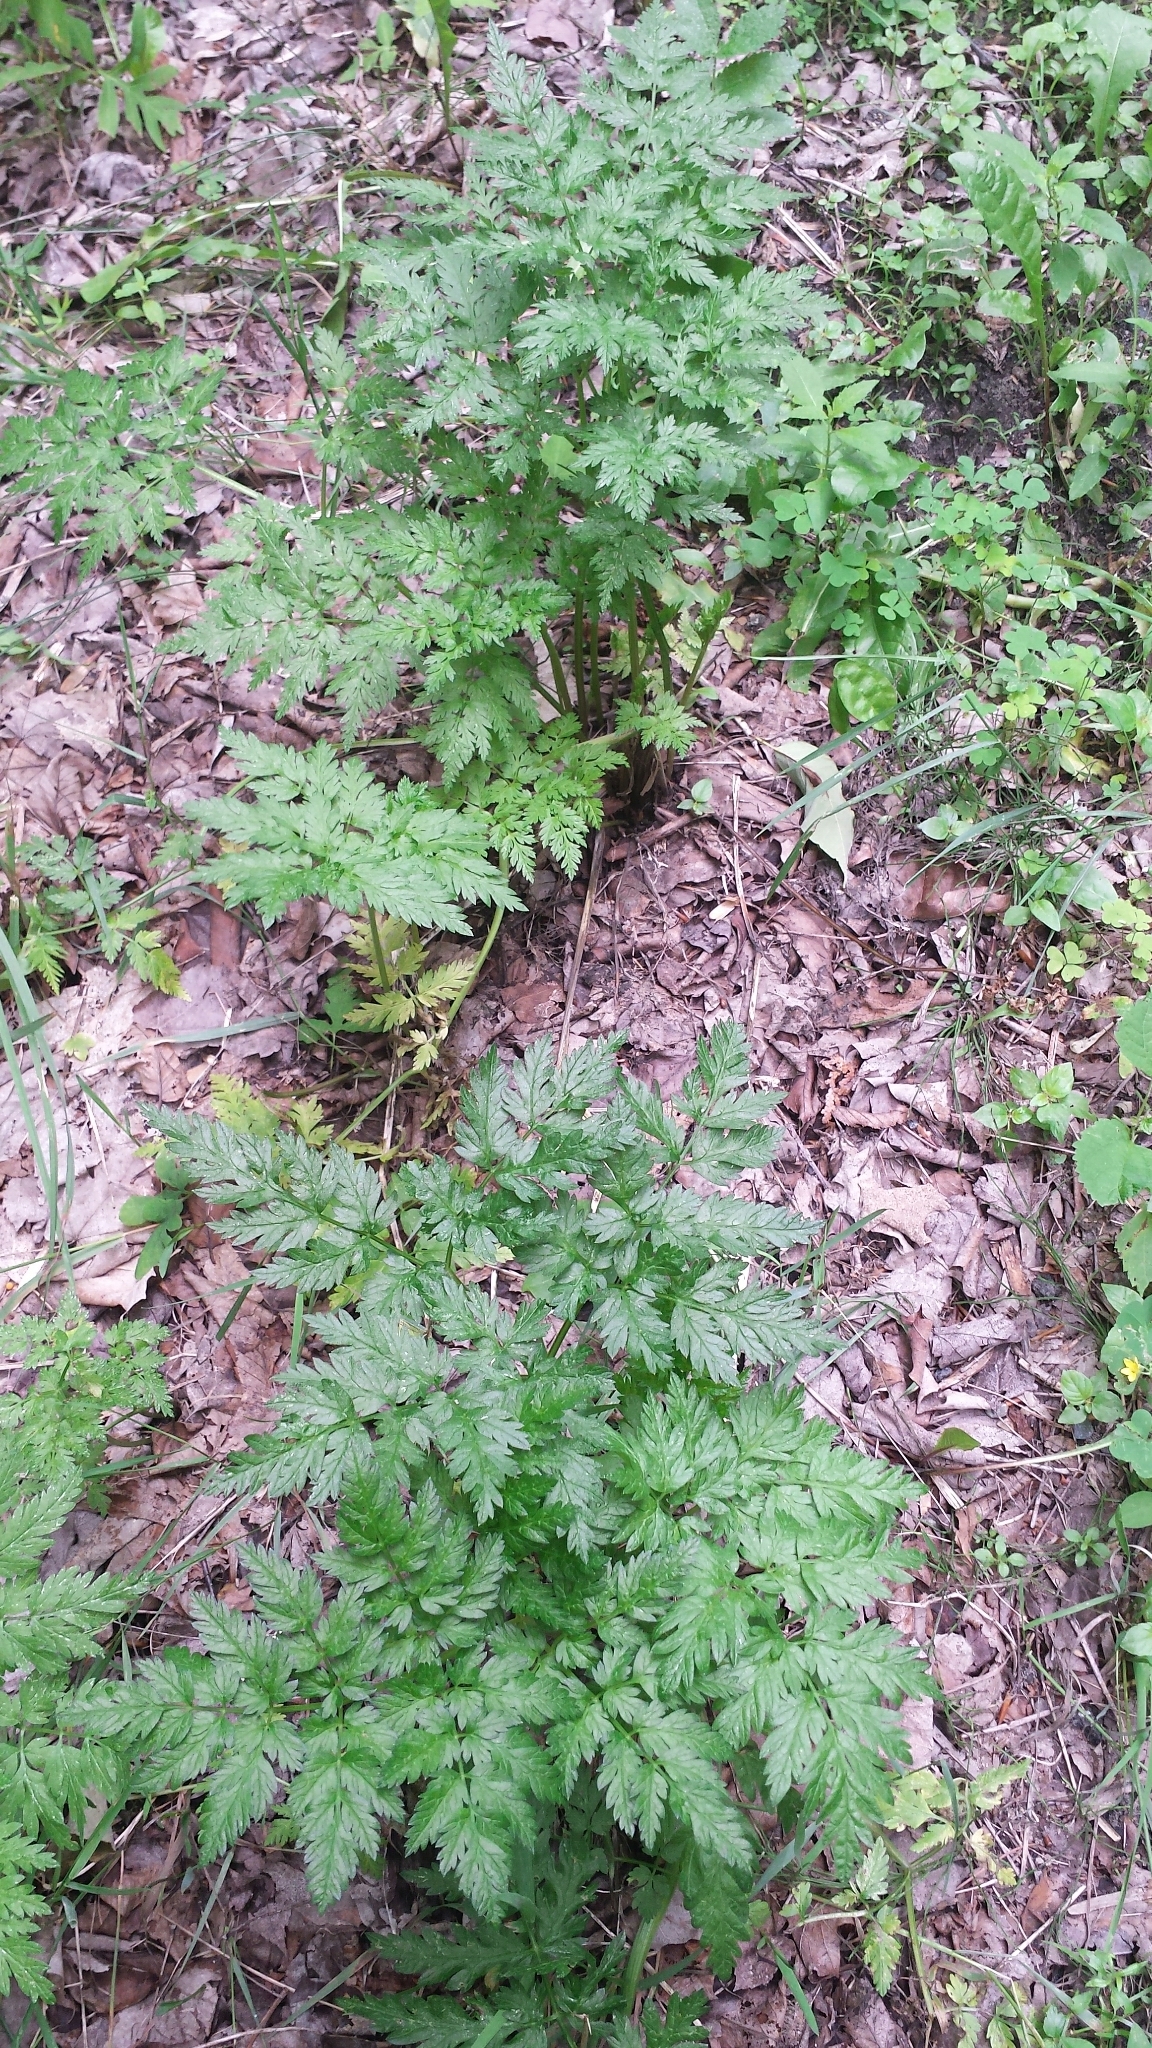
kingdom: Plantae
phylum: Tracheophyta
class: Magnoliopsida
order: Apiales
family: Apiaceae
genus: Anthriscus
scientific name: Anthriscus sylvestris
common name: Cow parsley
